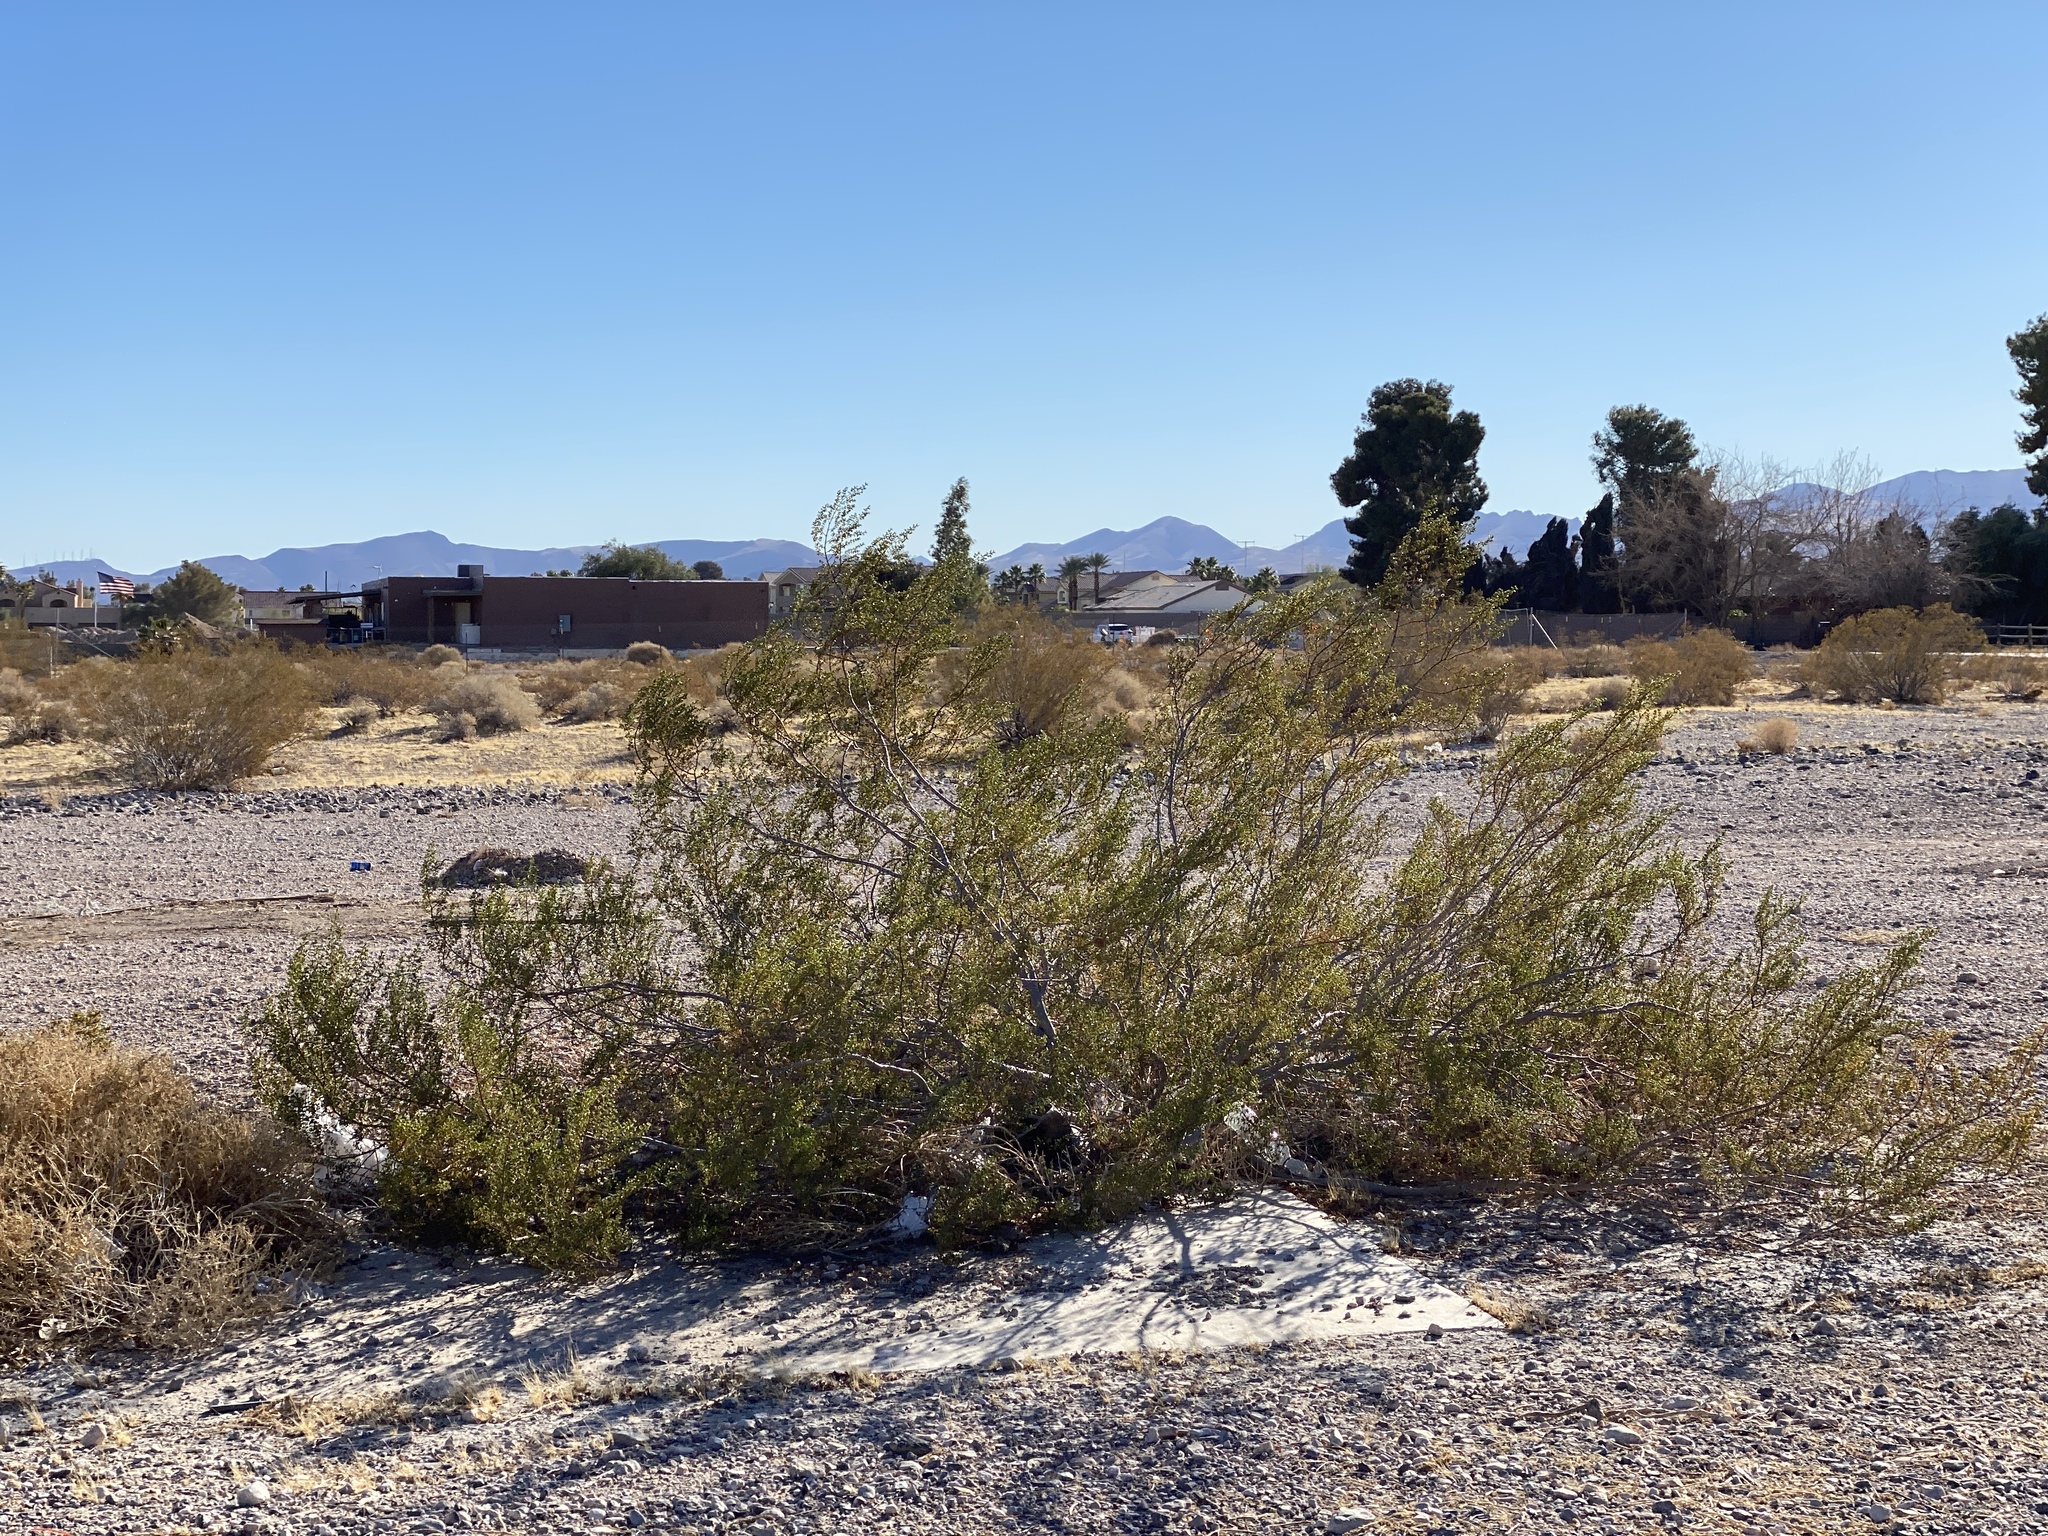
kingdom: Plantae
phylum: Tracheophyta
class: Magnoliopsida
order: Zygophyllales
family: Zygophyllaceae
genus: Larrea
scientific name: Larrea tridentata
